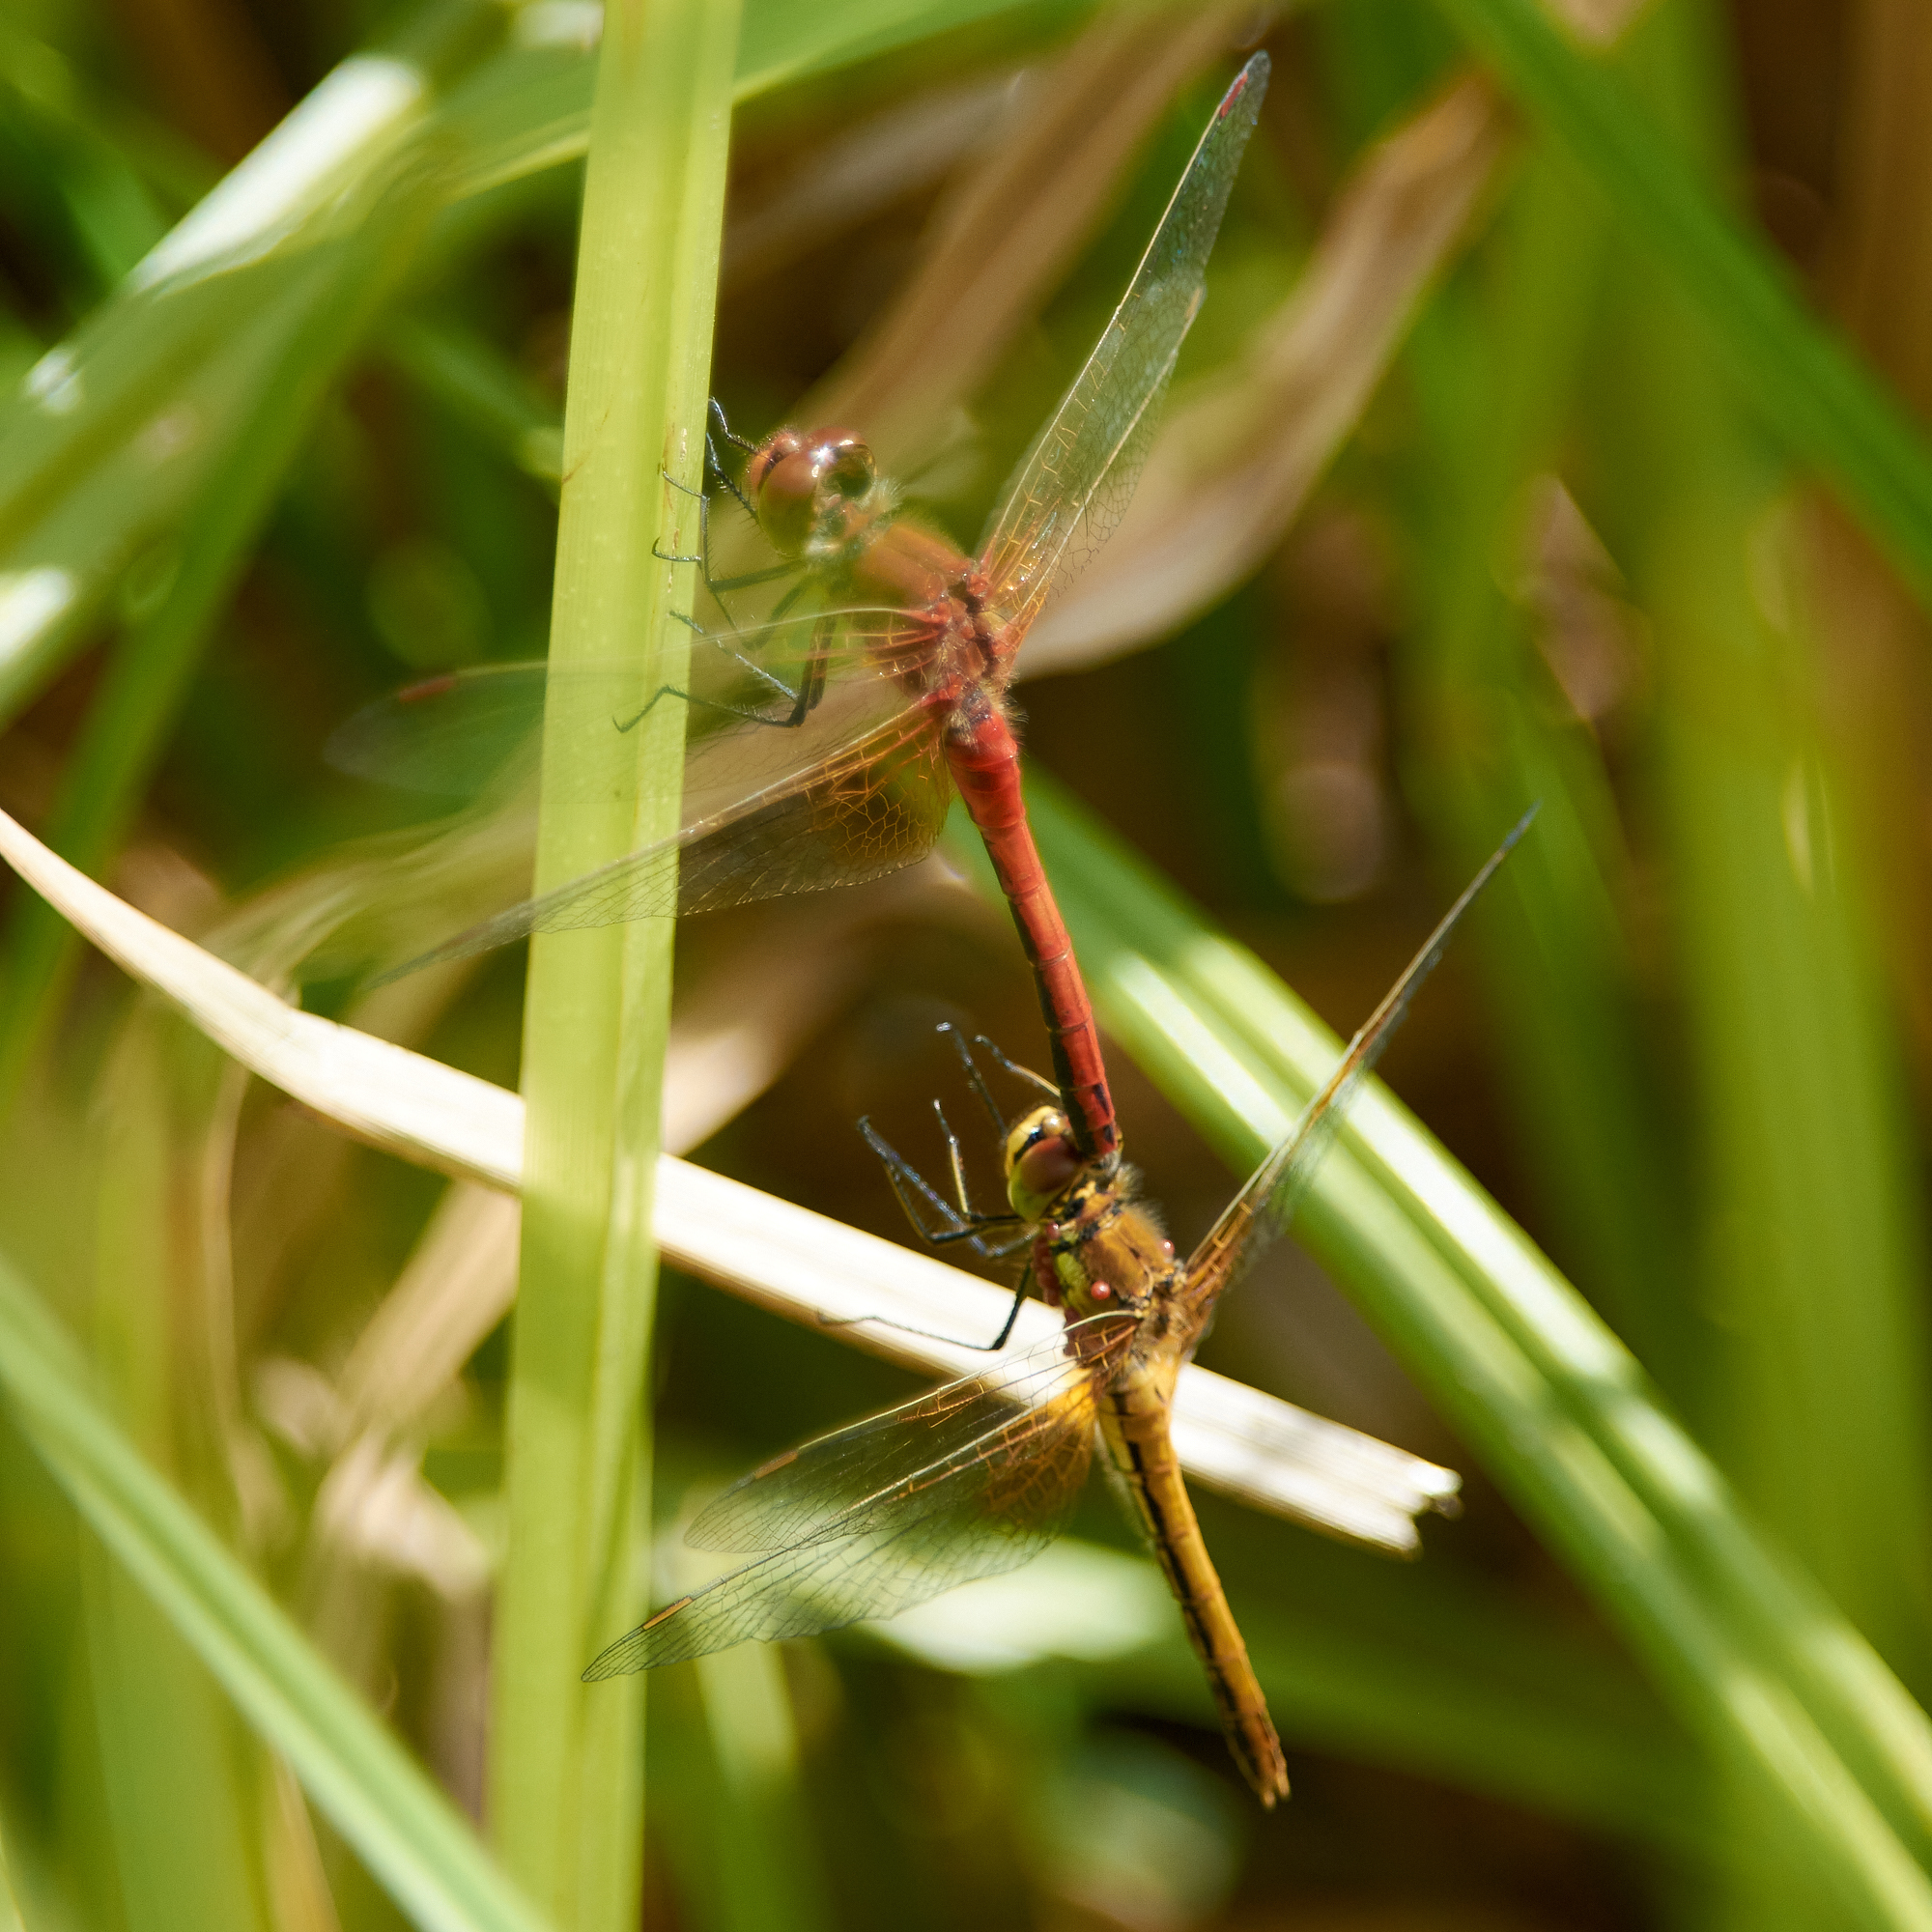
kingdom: Animalia
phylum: Arthropoda
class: Insecta
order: Odonata
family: Libellulidae
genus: Sympetrum
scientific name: Sympetrum flaveolum
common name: Yellow-winged darter
